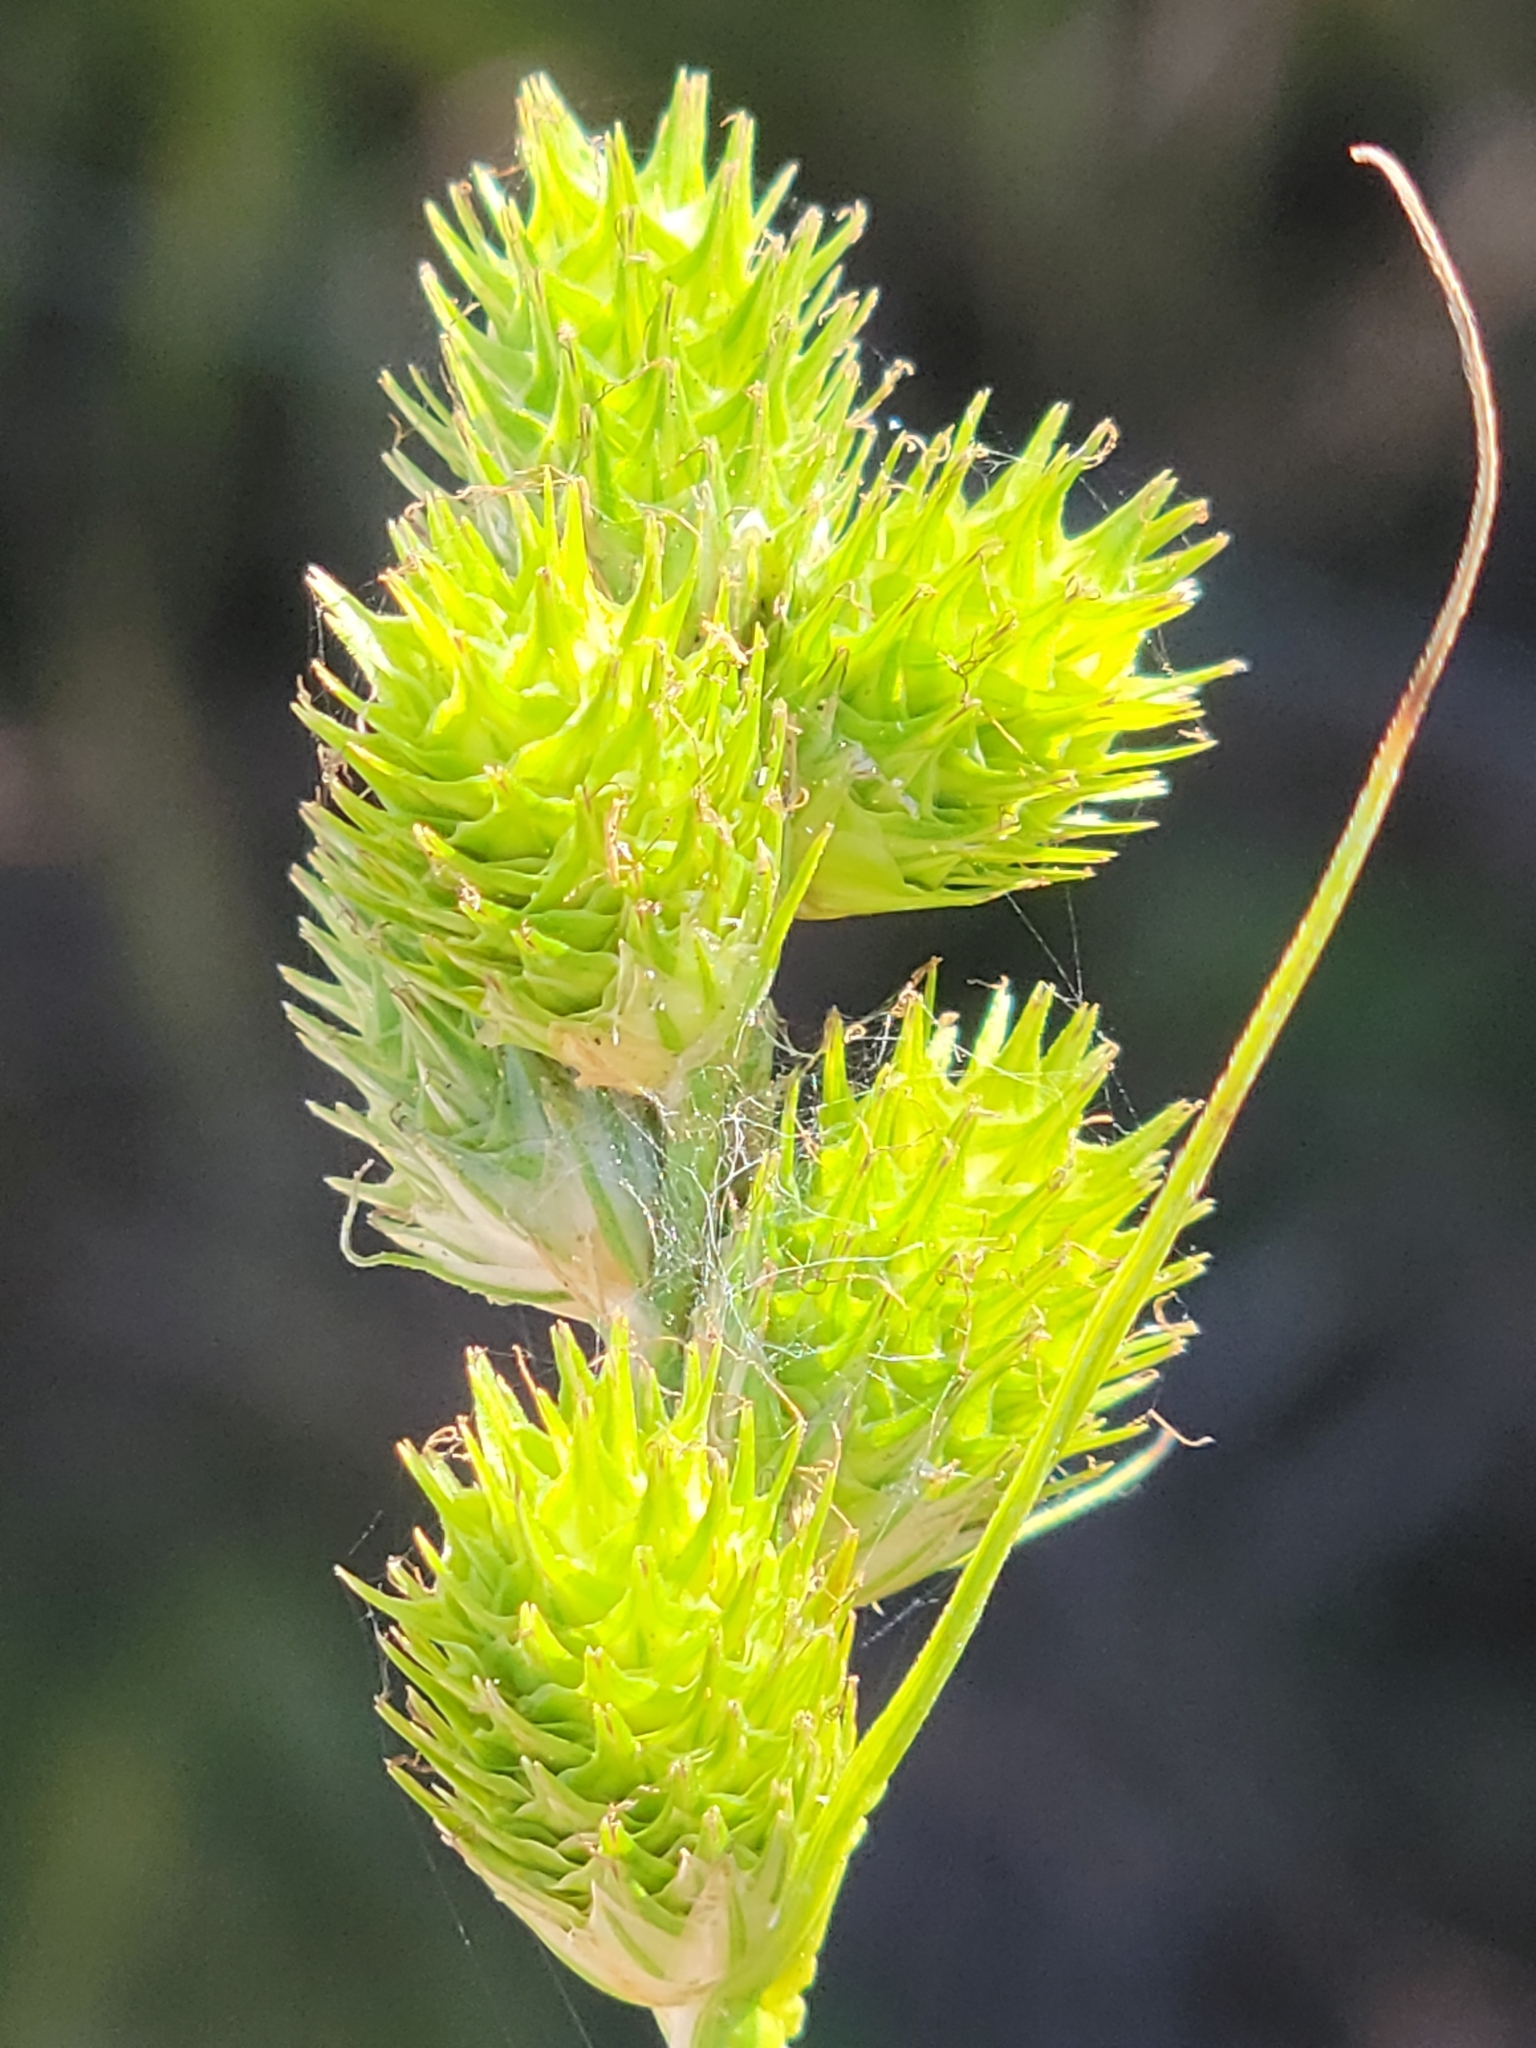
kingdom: Plantae
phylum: Tracheophyta
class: Liliopsida
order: Poales
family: Cyperaceae
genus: Carex
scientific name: Carex vexans
